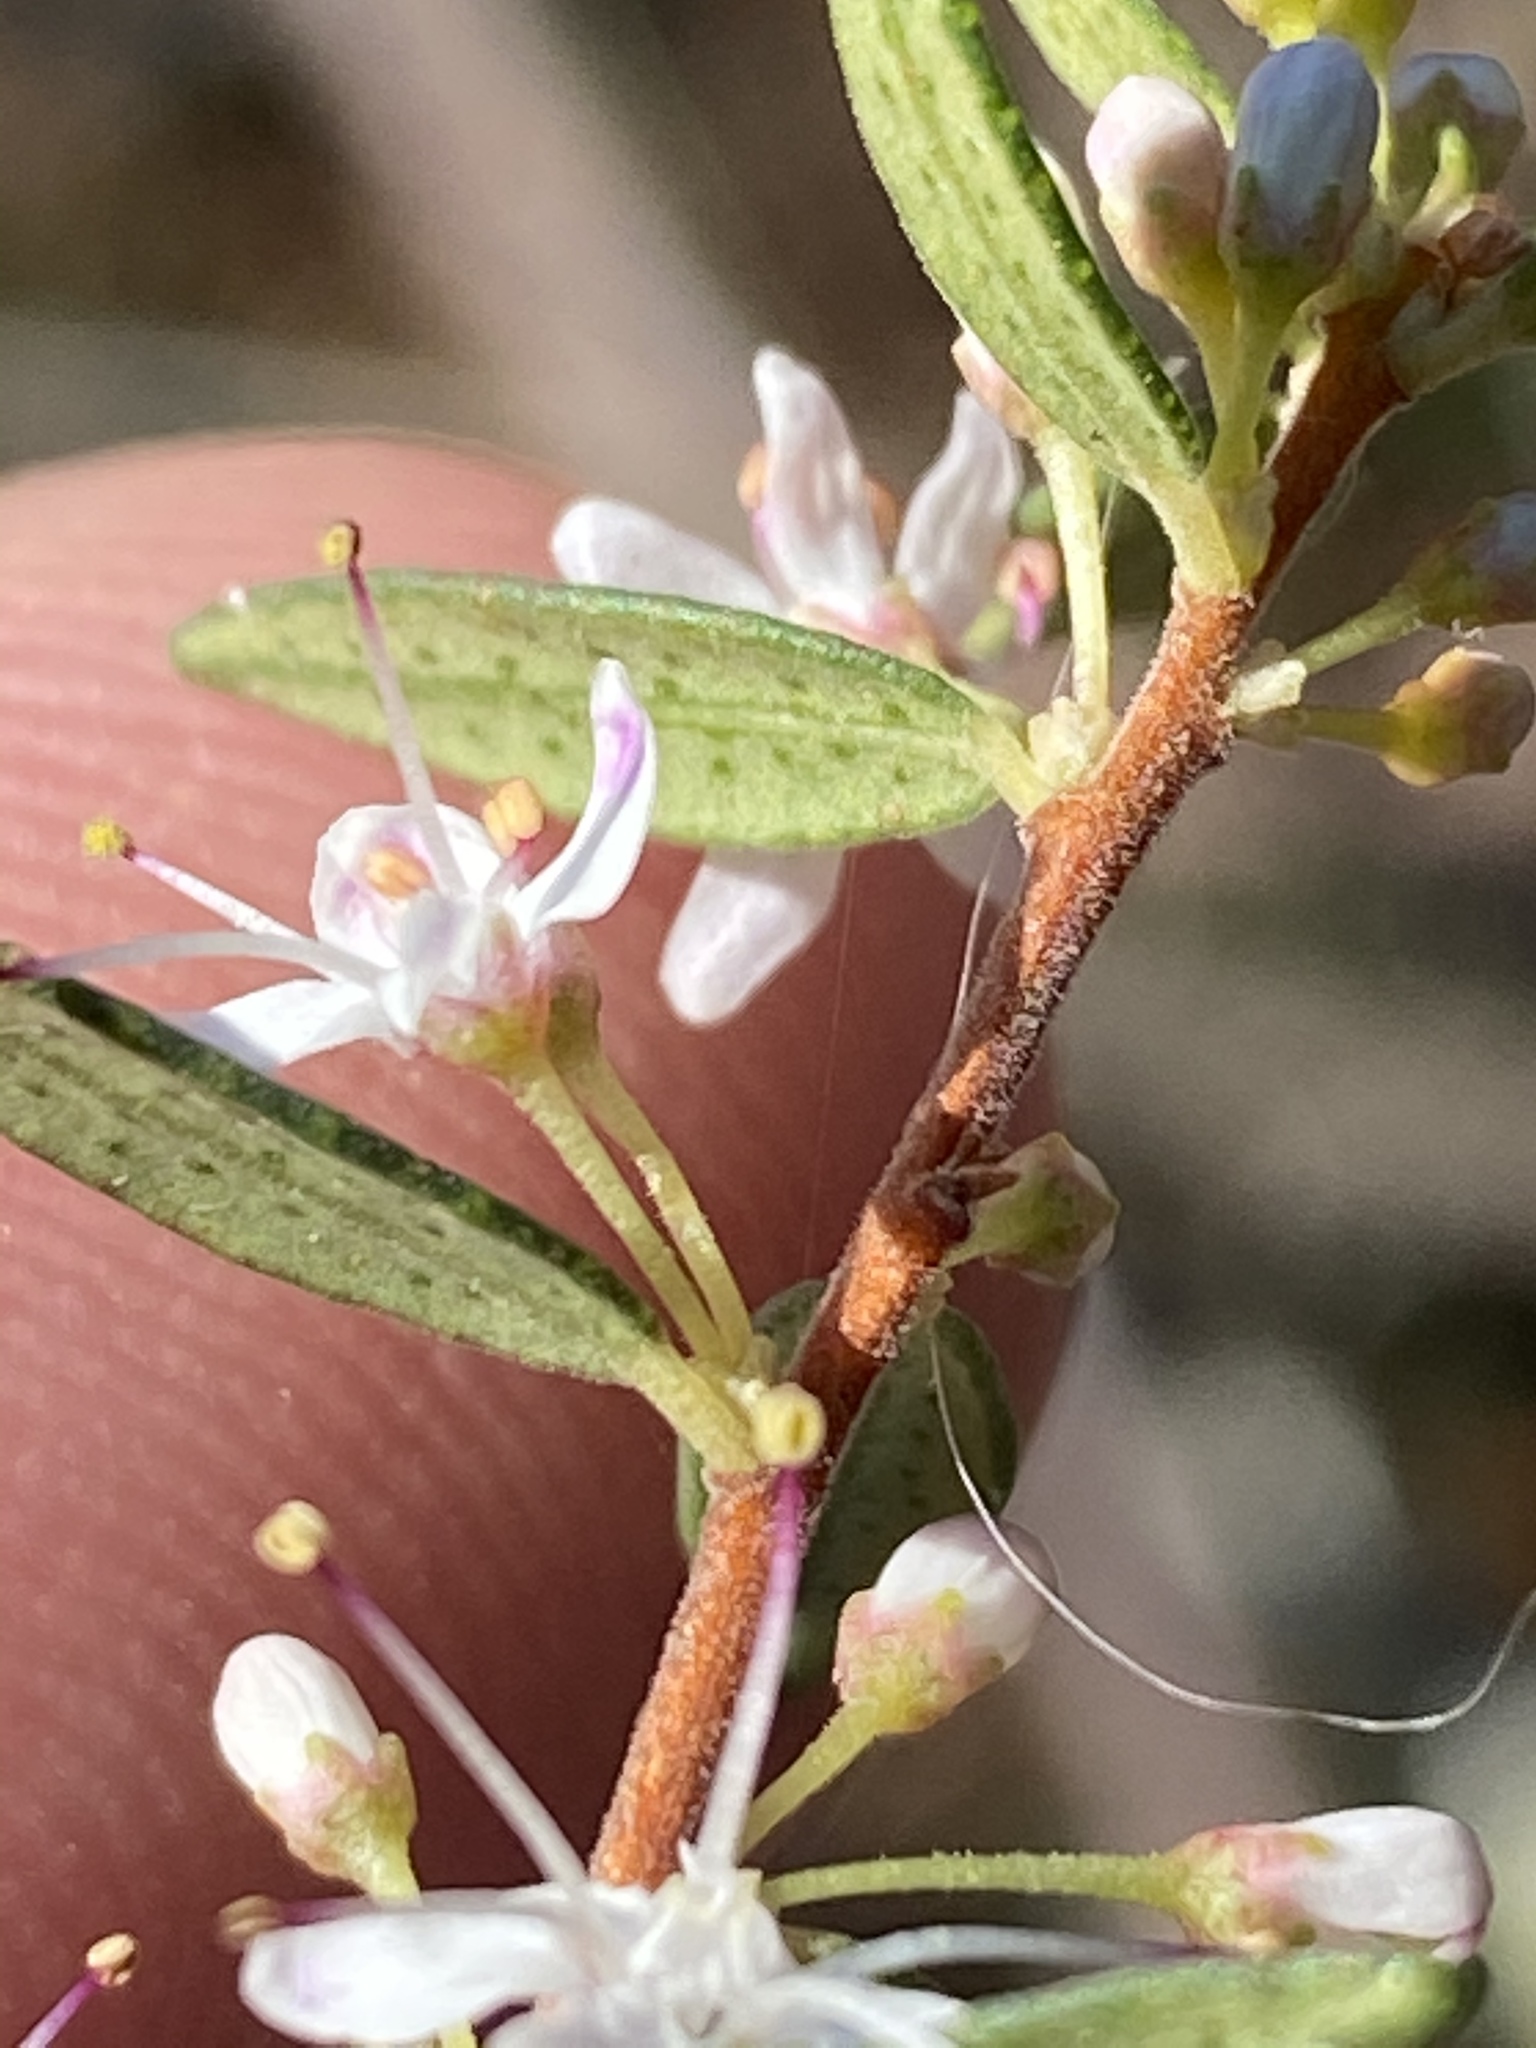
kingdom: Plantae
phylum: Tracheophyta
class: Magnoliopsida
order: Sapindales
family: Rutaceae
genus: Agathosma
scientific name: Agathosma ovata
